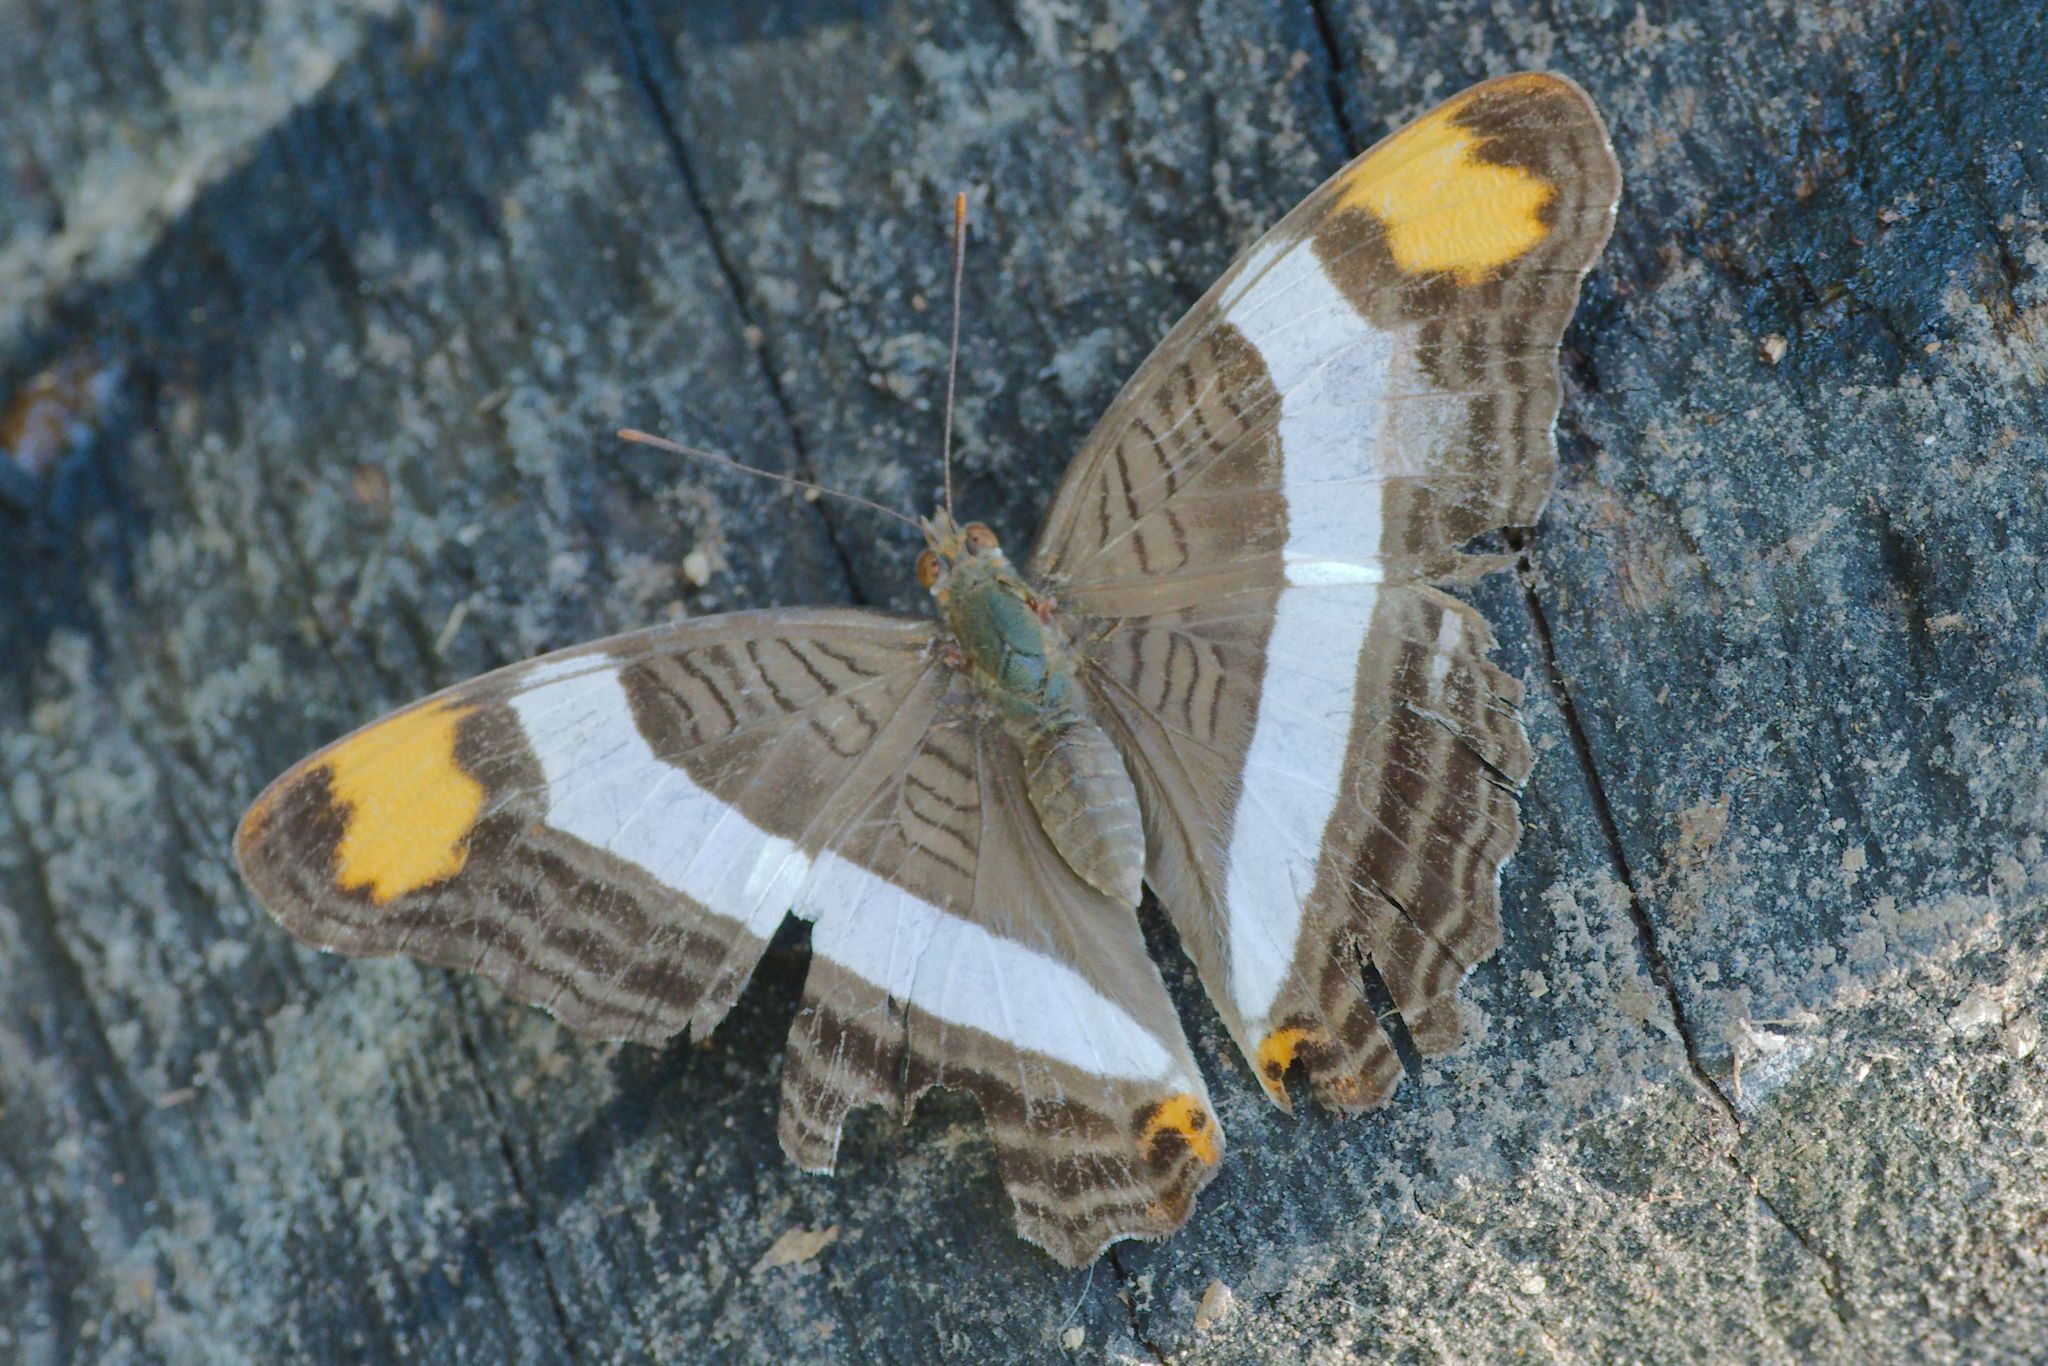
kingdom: Animalia
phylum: Arthropoda
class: Insecta
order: Lepidoptera
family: Nymphalidae
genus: Limenitis
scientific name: Limenitis fessonia
